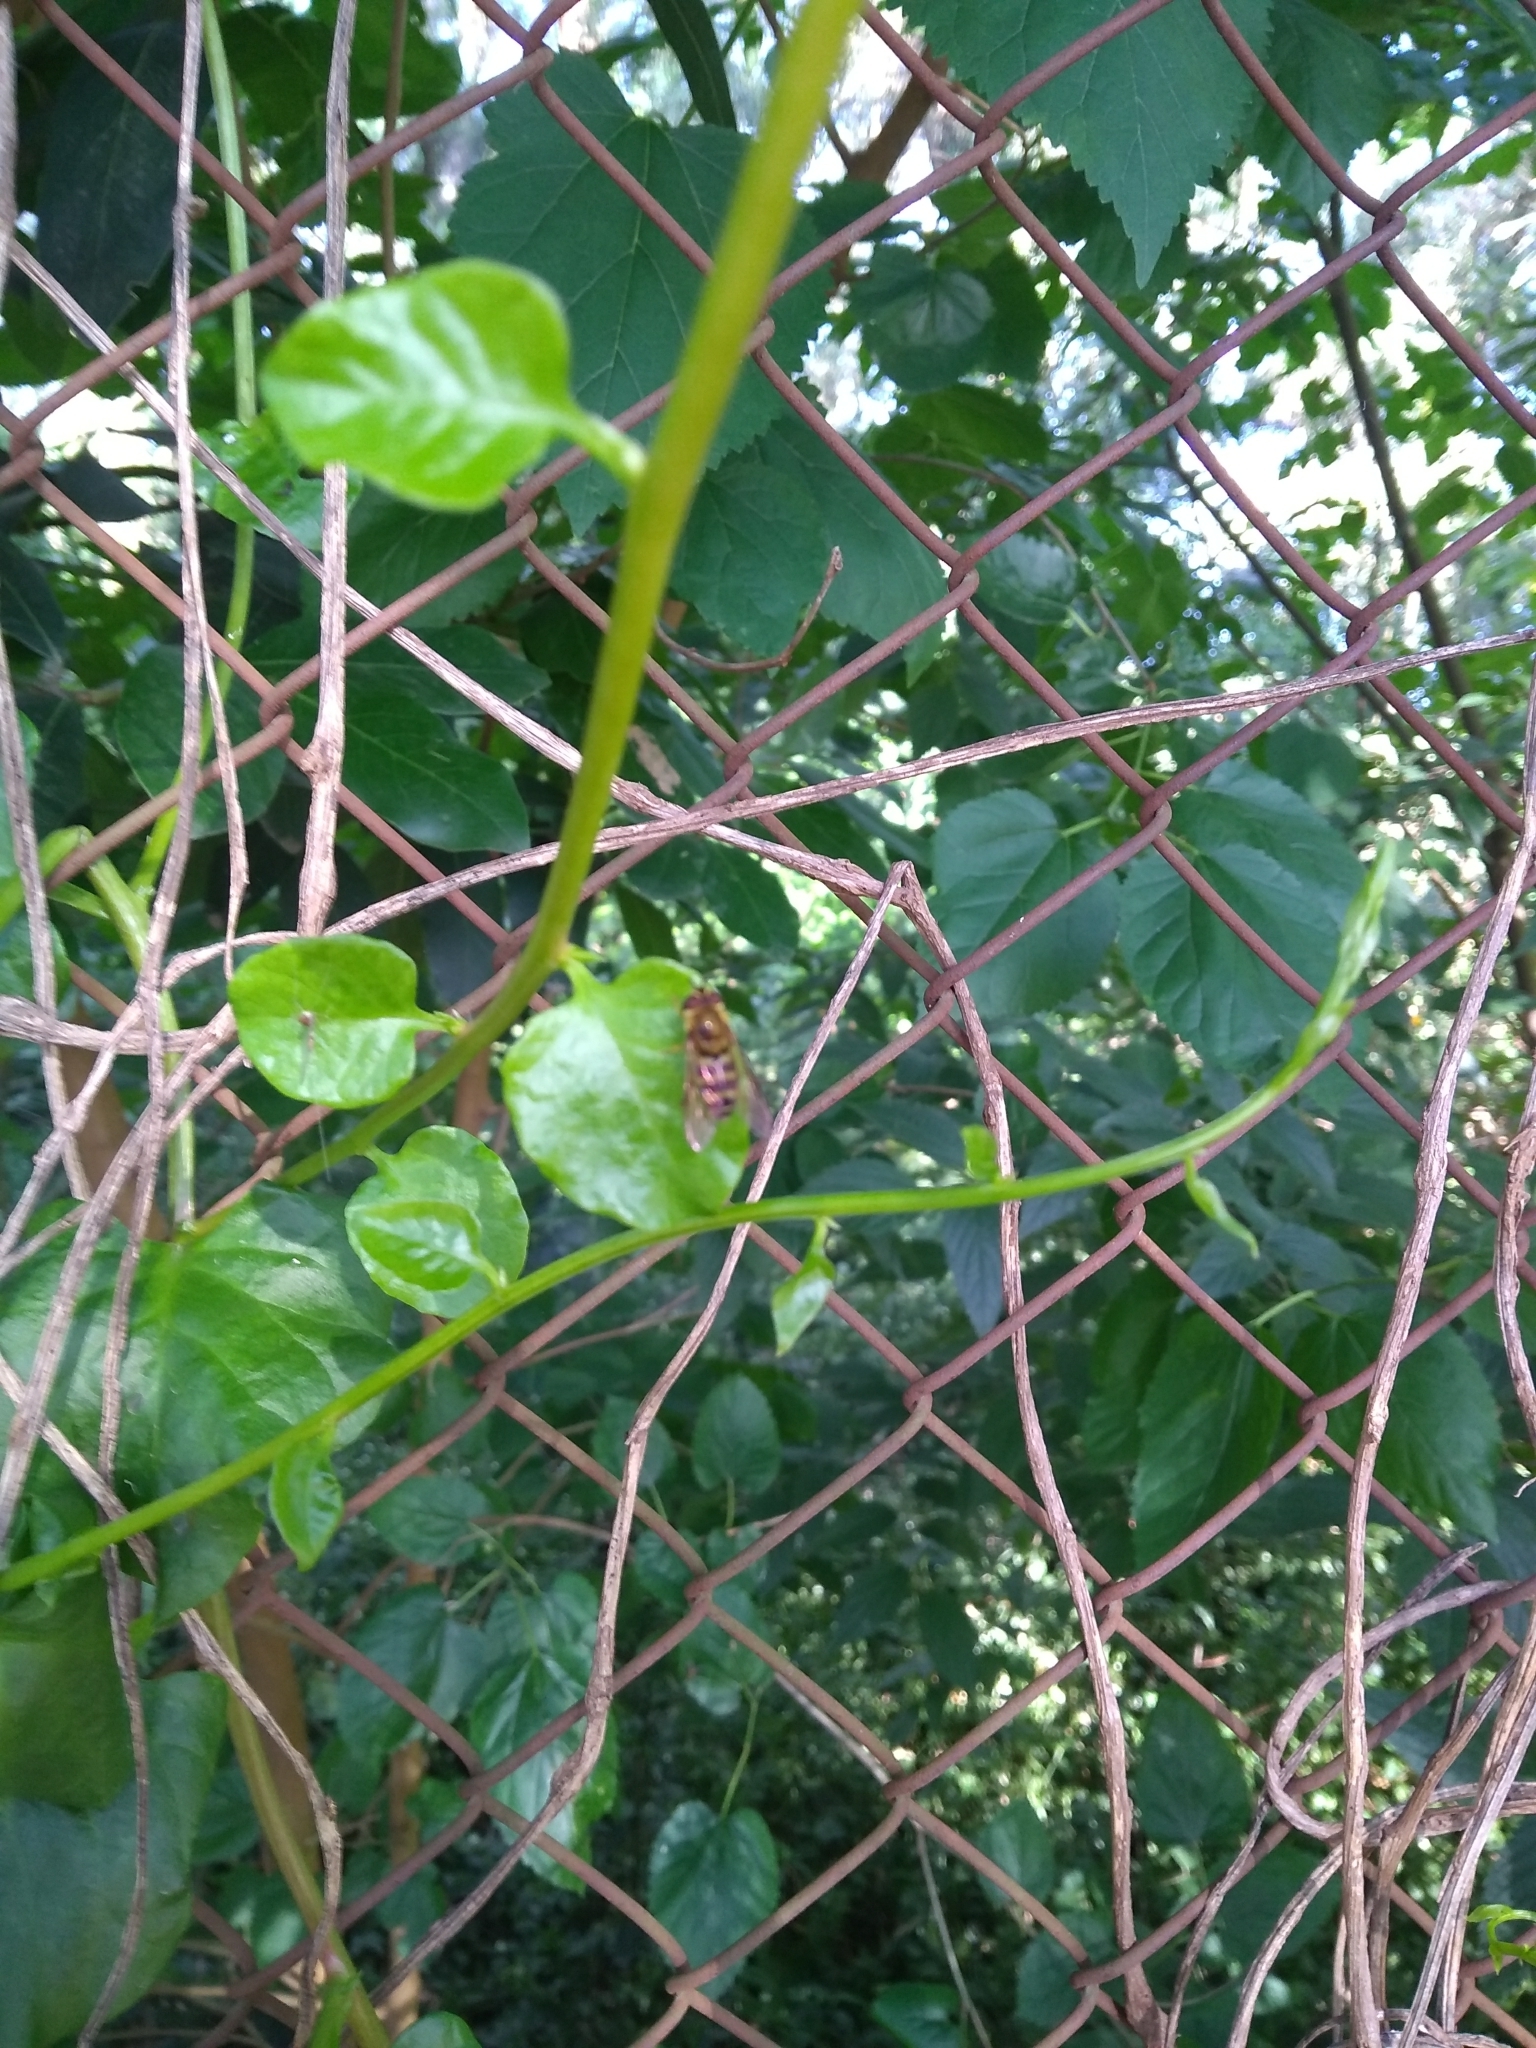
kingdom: Plantae
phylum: Tracheophyta
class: Magnoliopsida
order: Caryophyllales
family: Basellaceae
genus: Anredera
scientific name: Anredera cordifolia
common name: Heartleaf madeiravine
